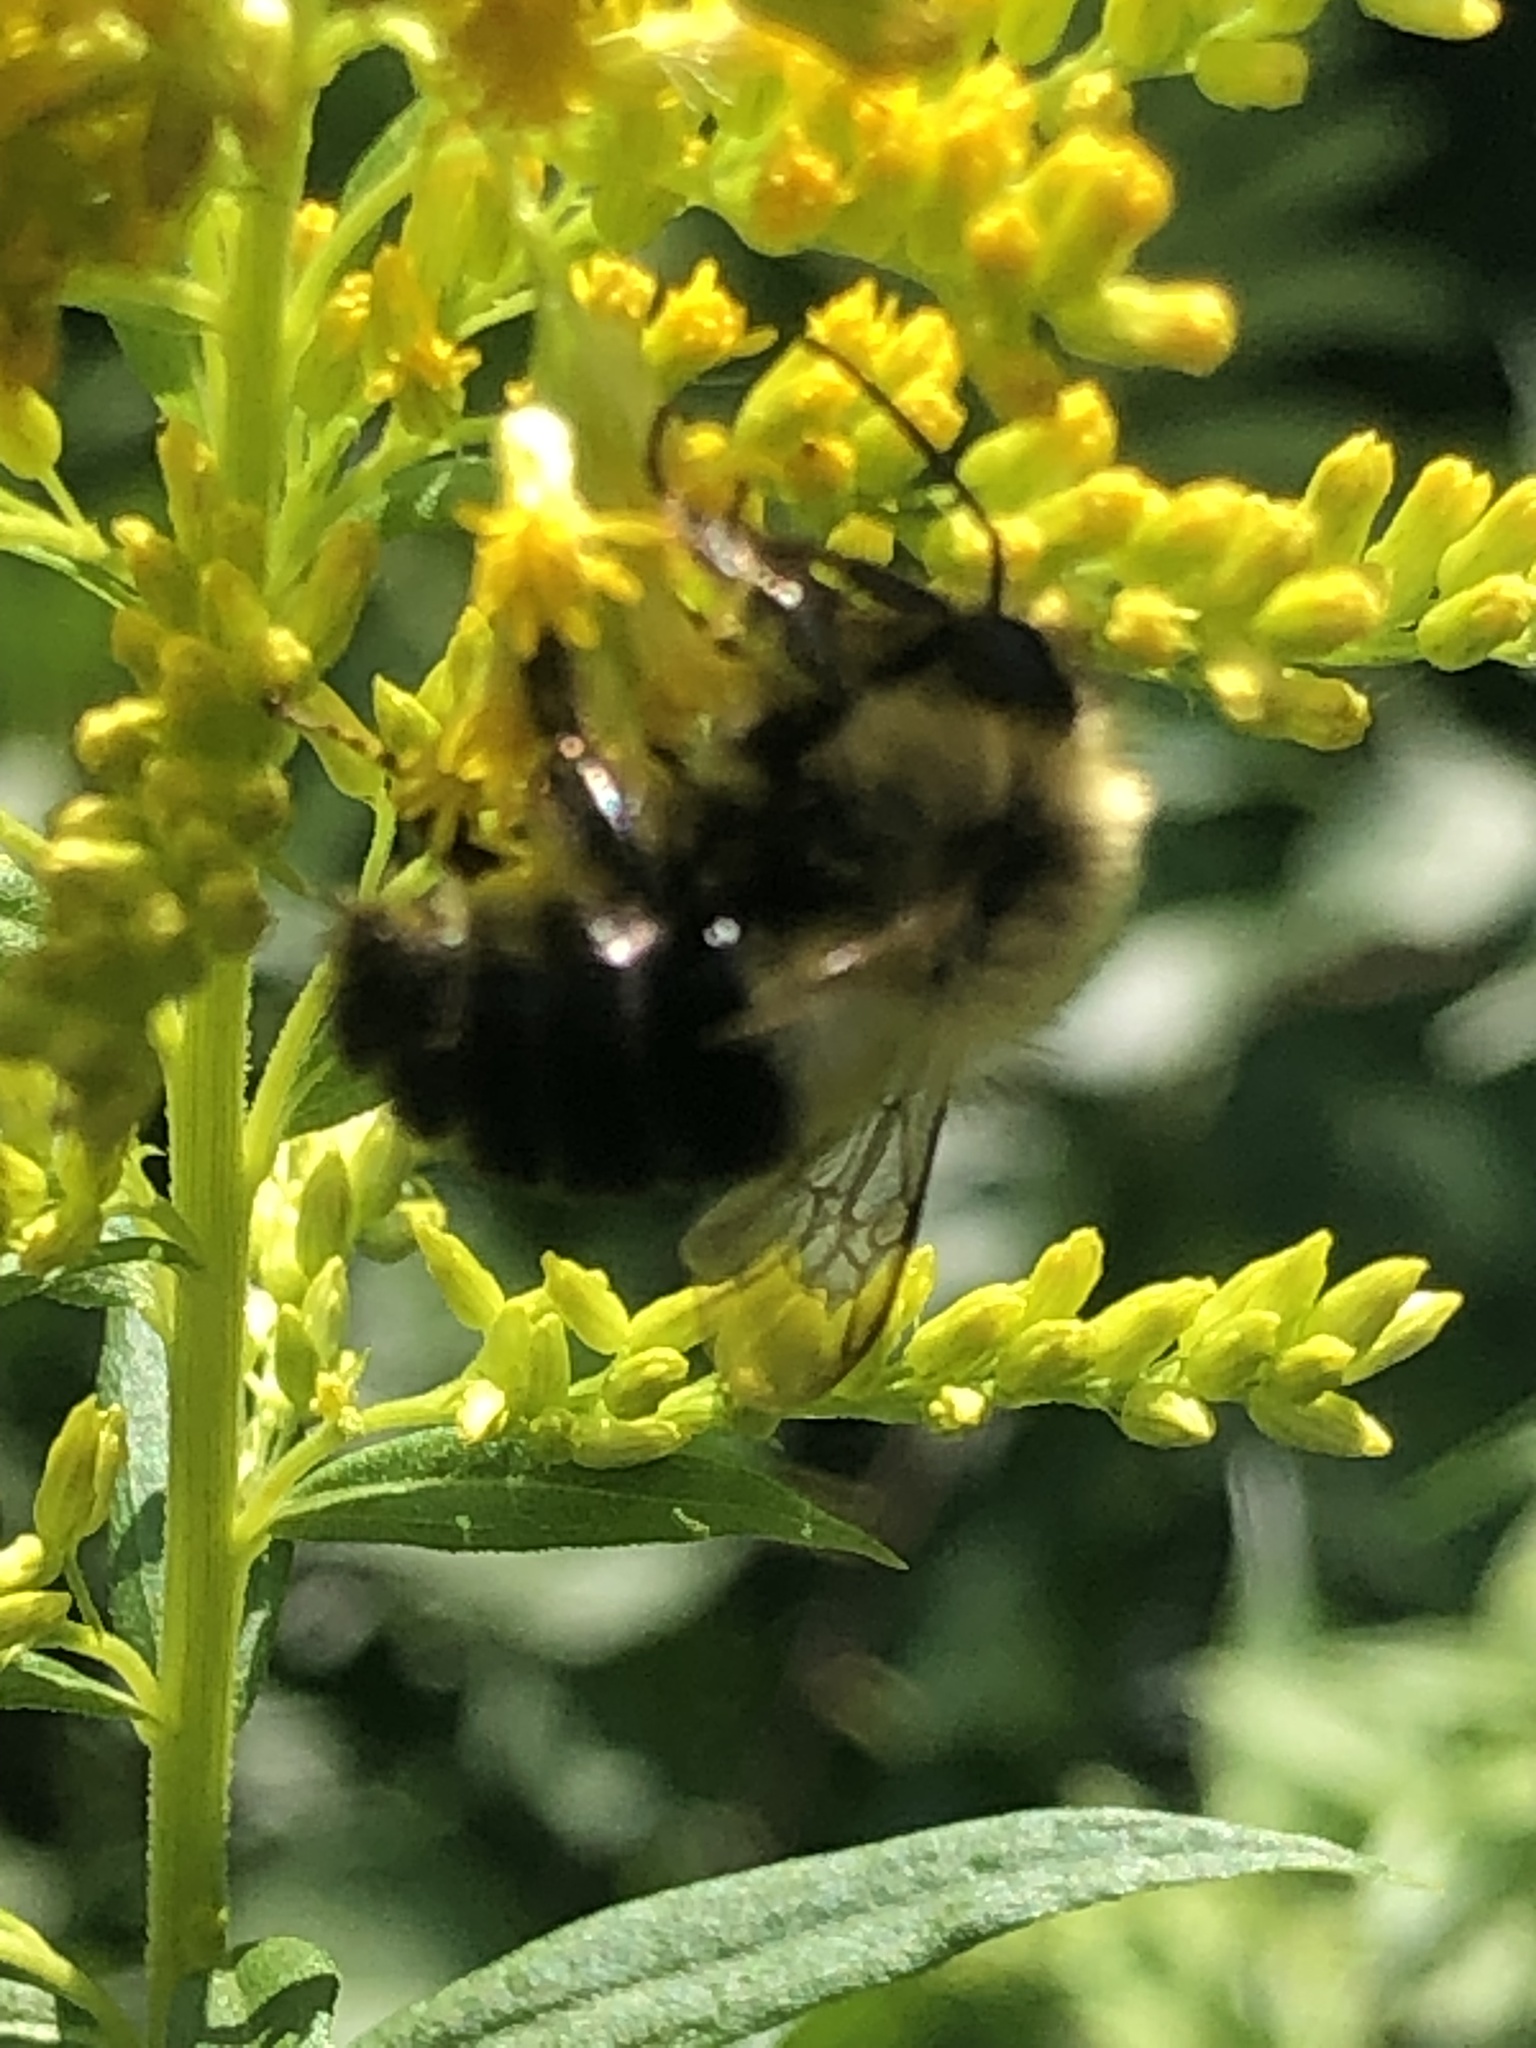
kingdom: Animalia
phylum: Arthropoda
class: Insecta
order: Hymenoptera
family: Apidae
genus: Bombus
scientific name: Bombus impatiens
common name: Common eastern bumble bee
